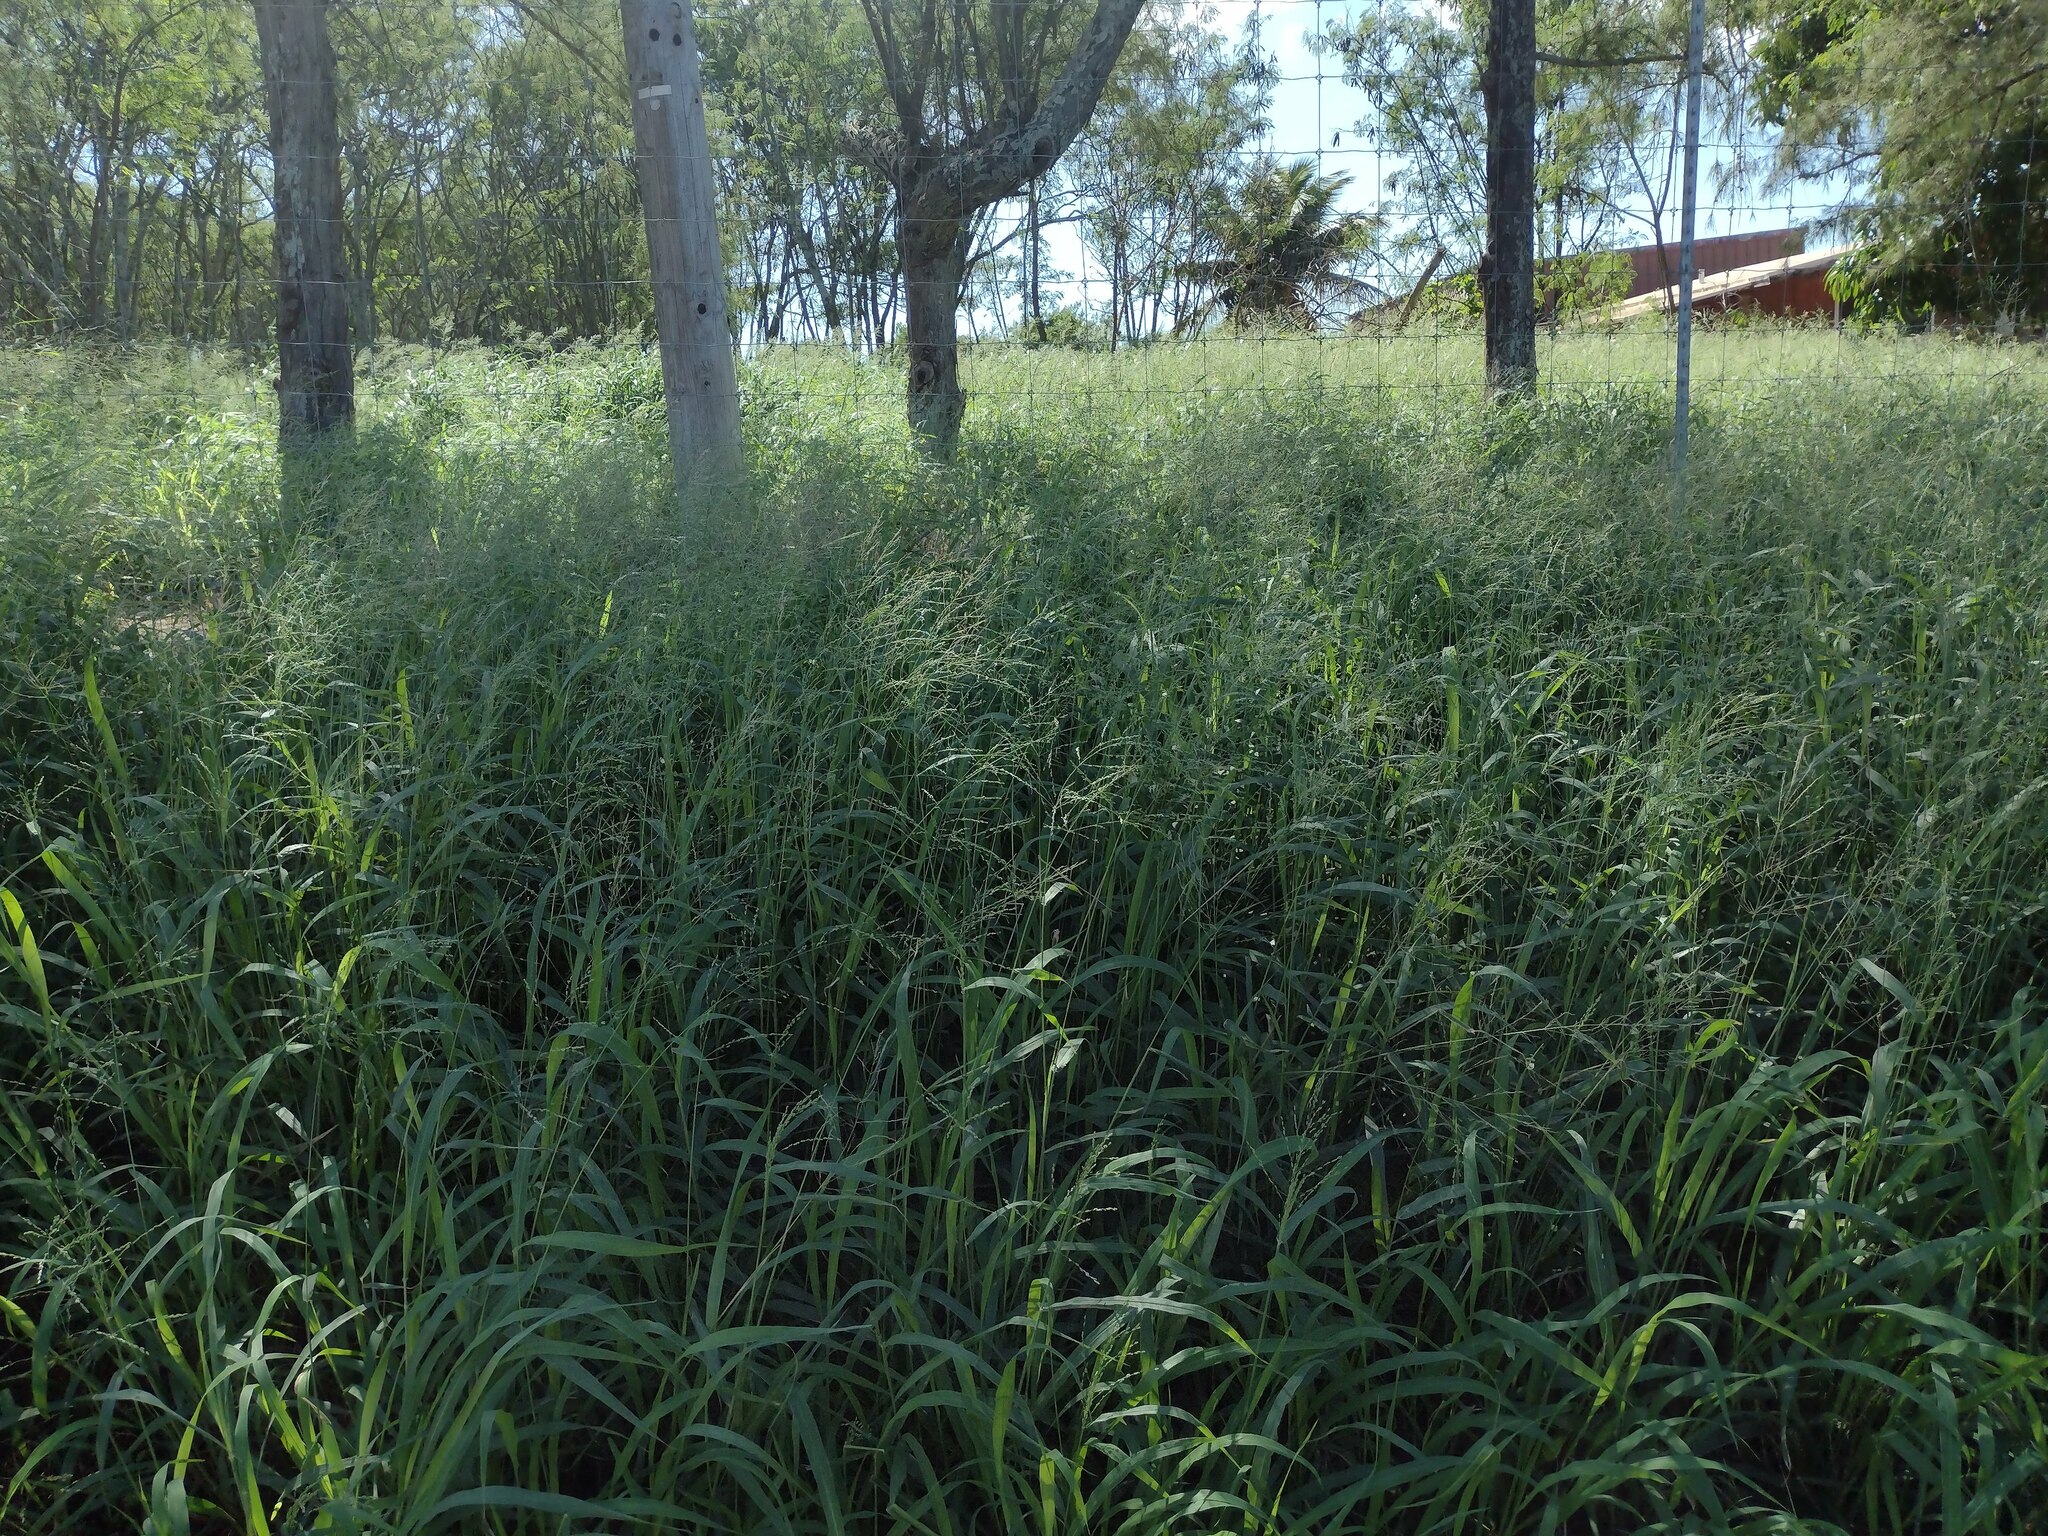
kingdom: Plantae
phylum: Tracheophyta
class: Liliopsida
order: Poales
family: Poaceae
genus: Megathyrsus
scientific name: Megathyrsus maximus
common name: Guineagrass
